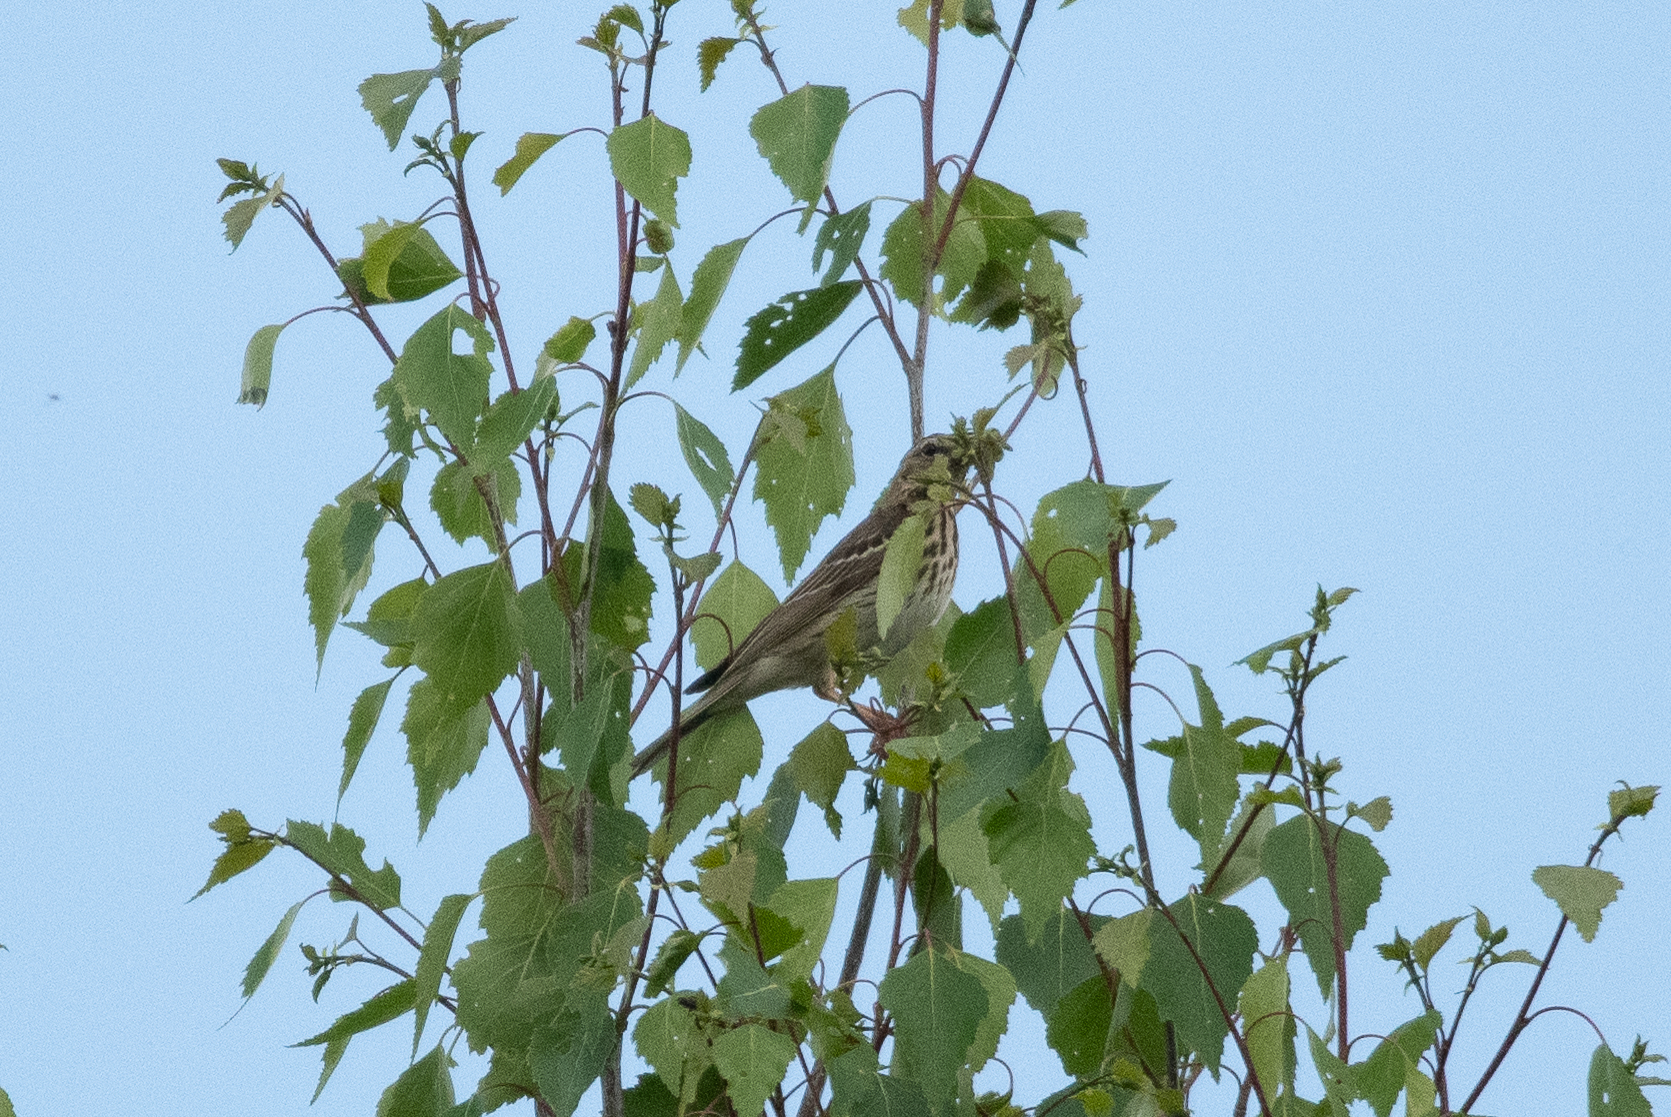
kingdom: Animalia
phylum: Chordata
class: Aves
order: Passeriformes
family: Motacillidae
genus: Anthus
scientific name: Anthus trivialis
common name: Tree pipit
